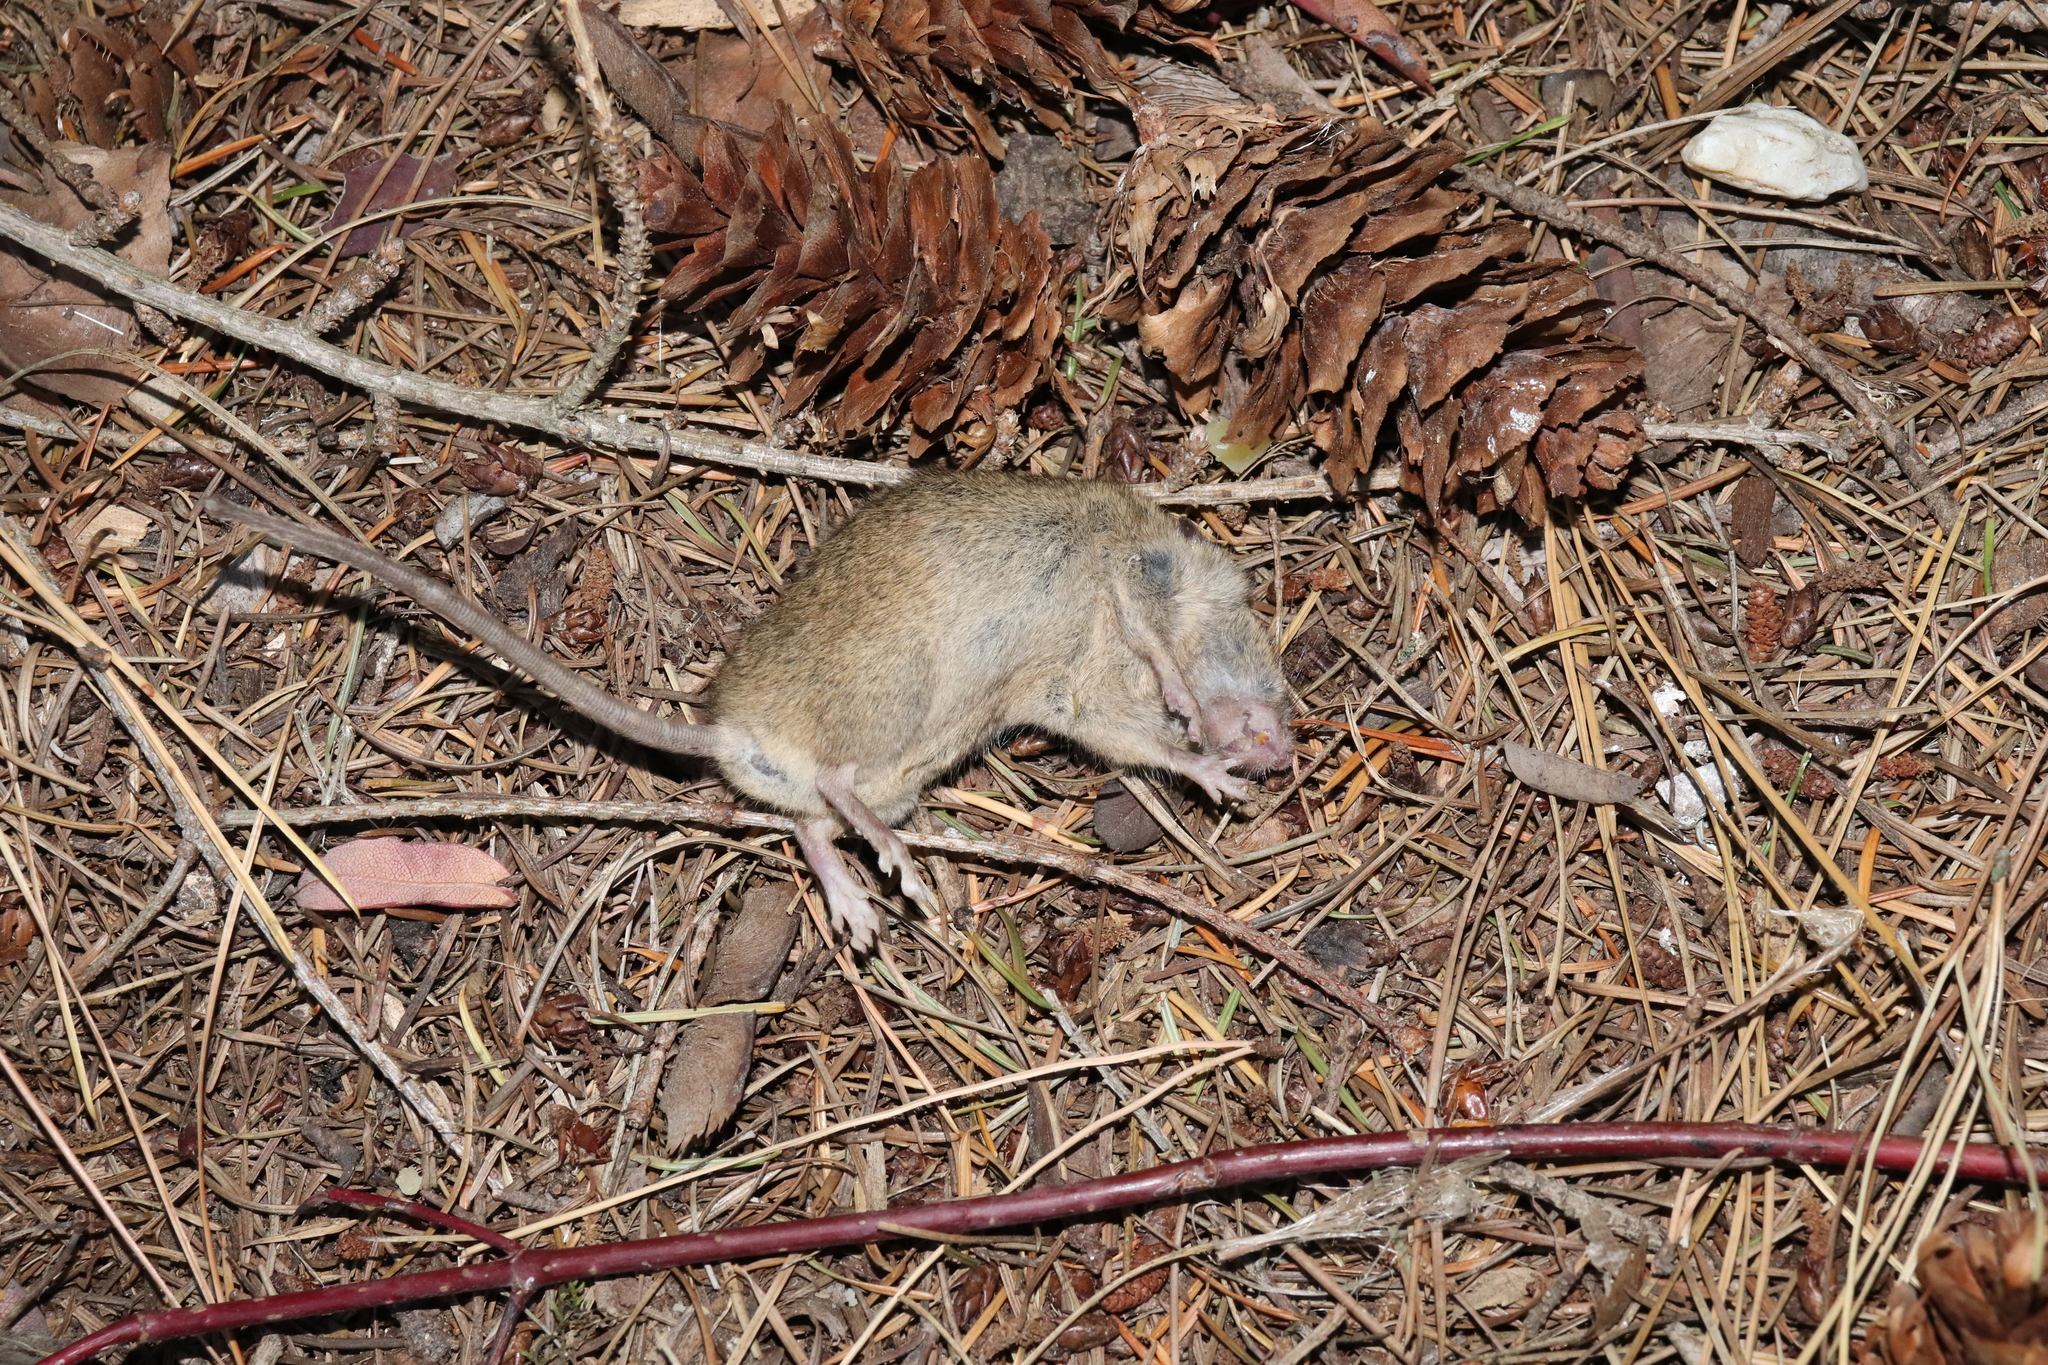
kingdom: Animalia
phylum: Chordata
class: Mammalia
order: Rodentia
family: Muridae
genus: Mus
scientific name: Mus musculus
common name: House mouse
